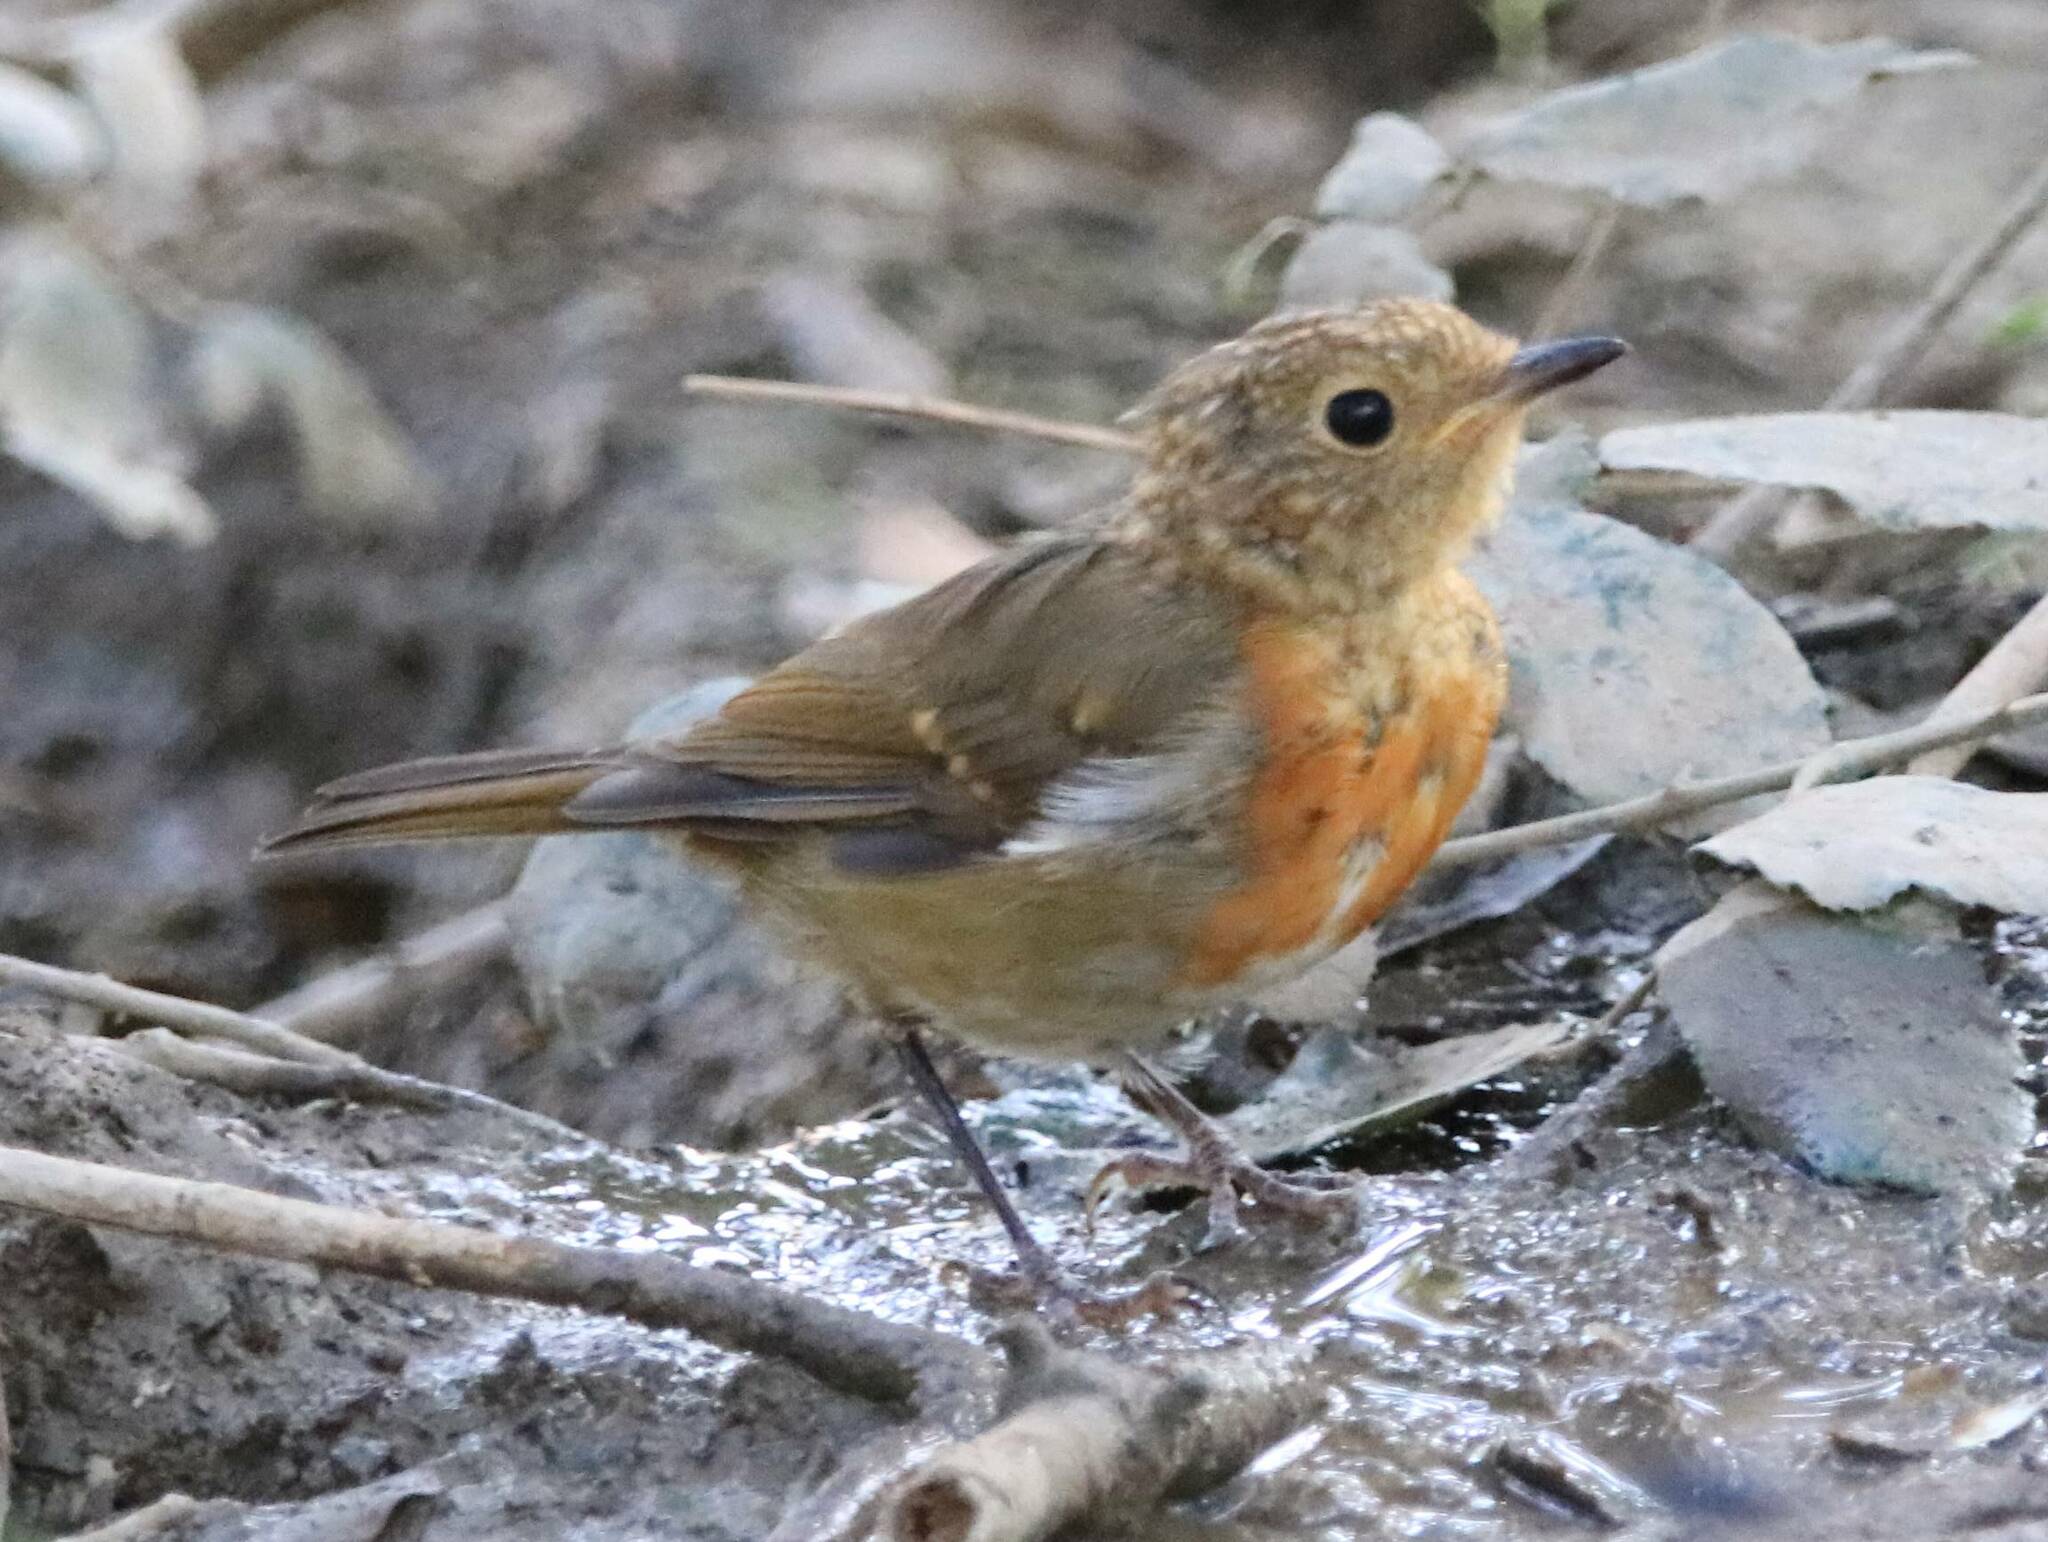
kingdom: Animalia
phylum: Chordata
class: Aves
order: Passeriformes
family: Muscicapidae
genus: Erithacus
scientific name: Erithacus rubecula
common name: European robin
